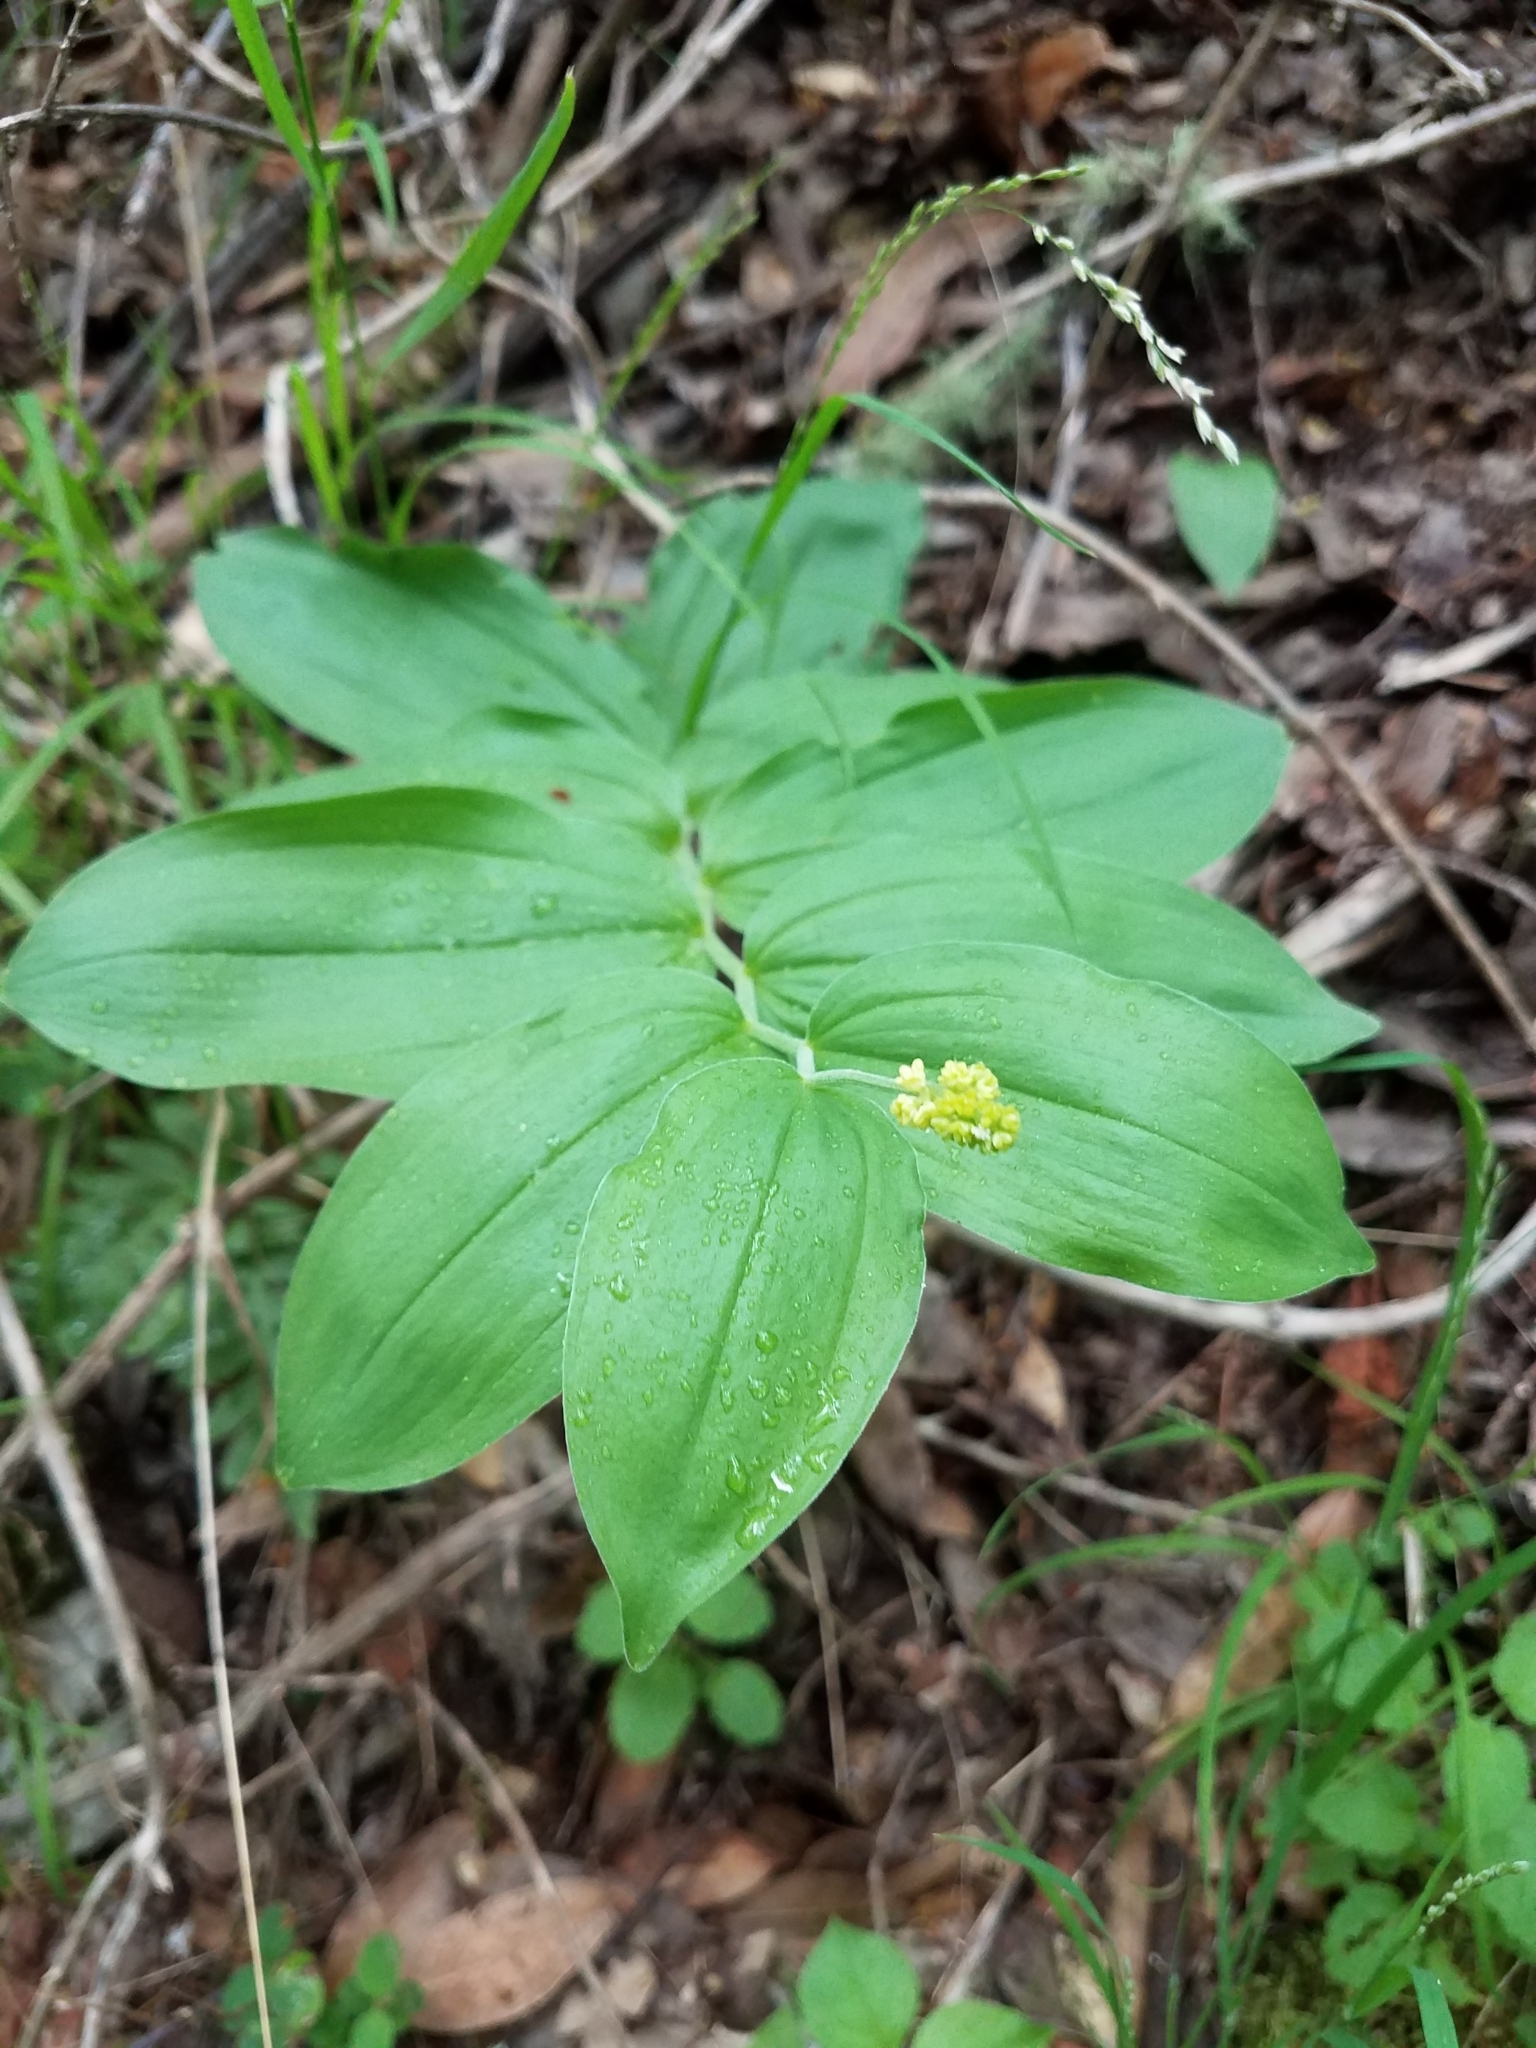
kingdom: Plantae
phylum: Tracheophyta
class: Liliopsida
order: Asparagales
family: Asparagaceae
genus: Maianthemum
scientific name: Maianthemum racemosum
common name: False spikenard
